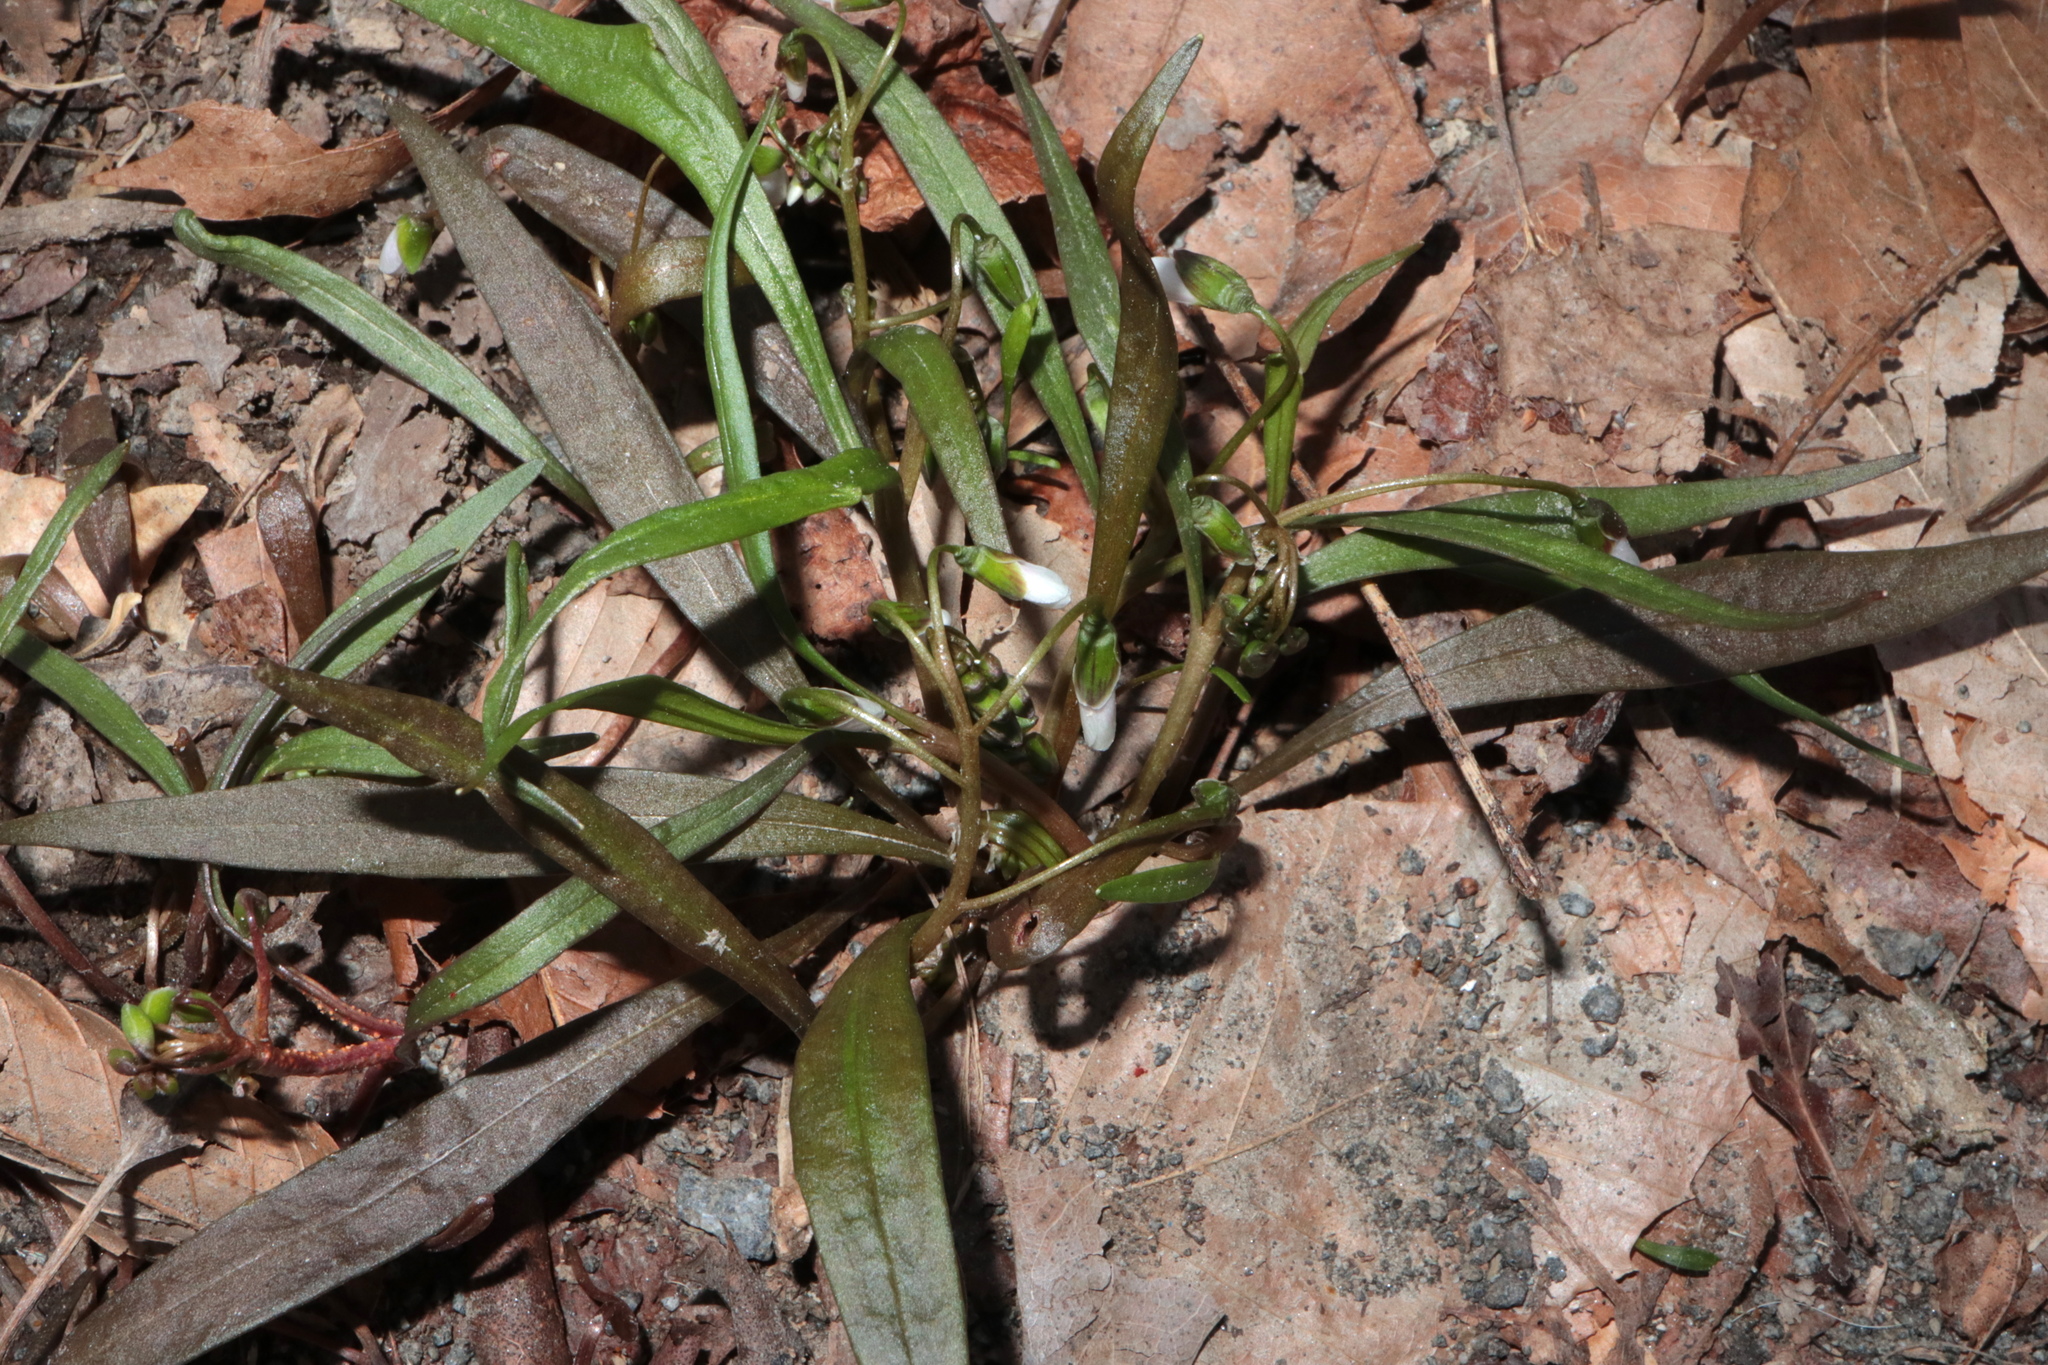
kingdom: Plantae
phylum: Tracheophyta
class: Magnoliopsida
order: Caryophyllales
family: Montiaceae
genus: Claytonia
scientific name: Claytonia virginica
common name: Virginia springbeauty
